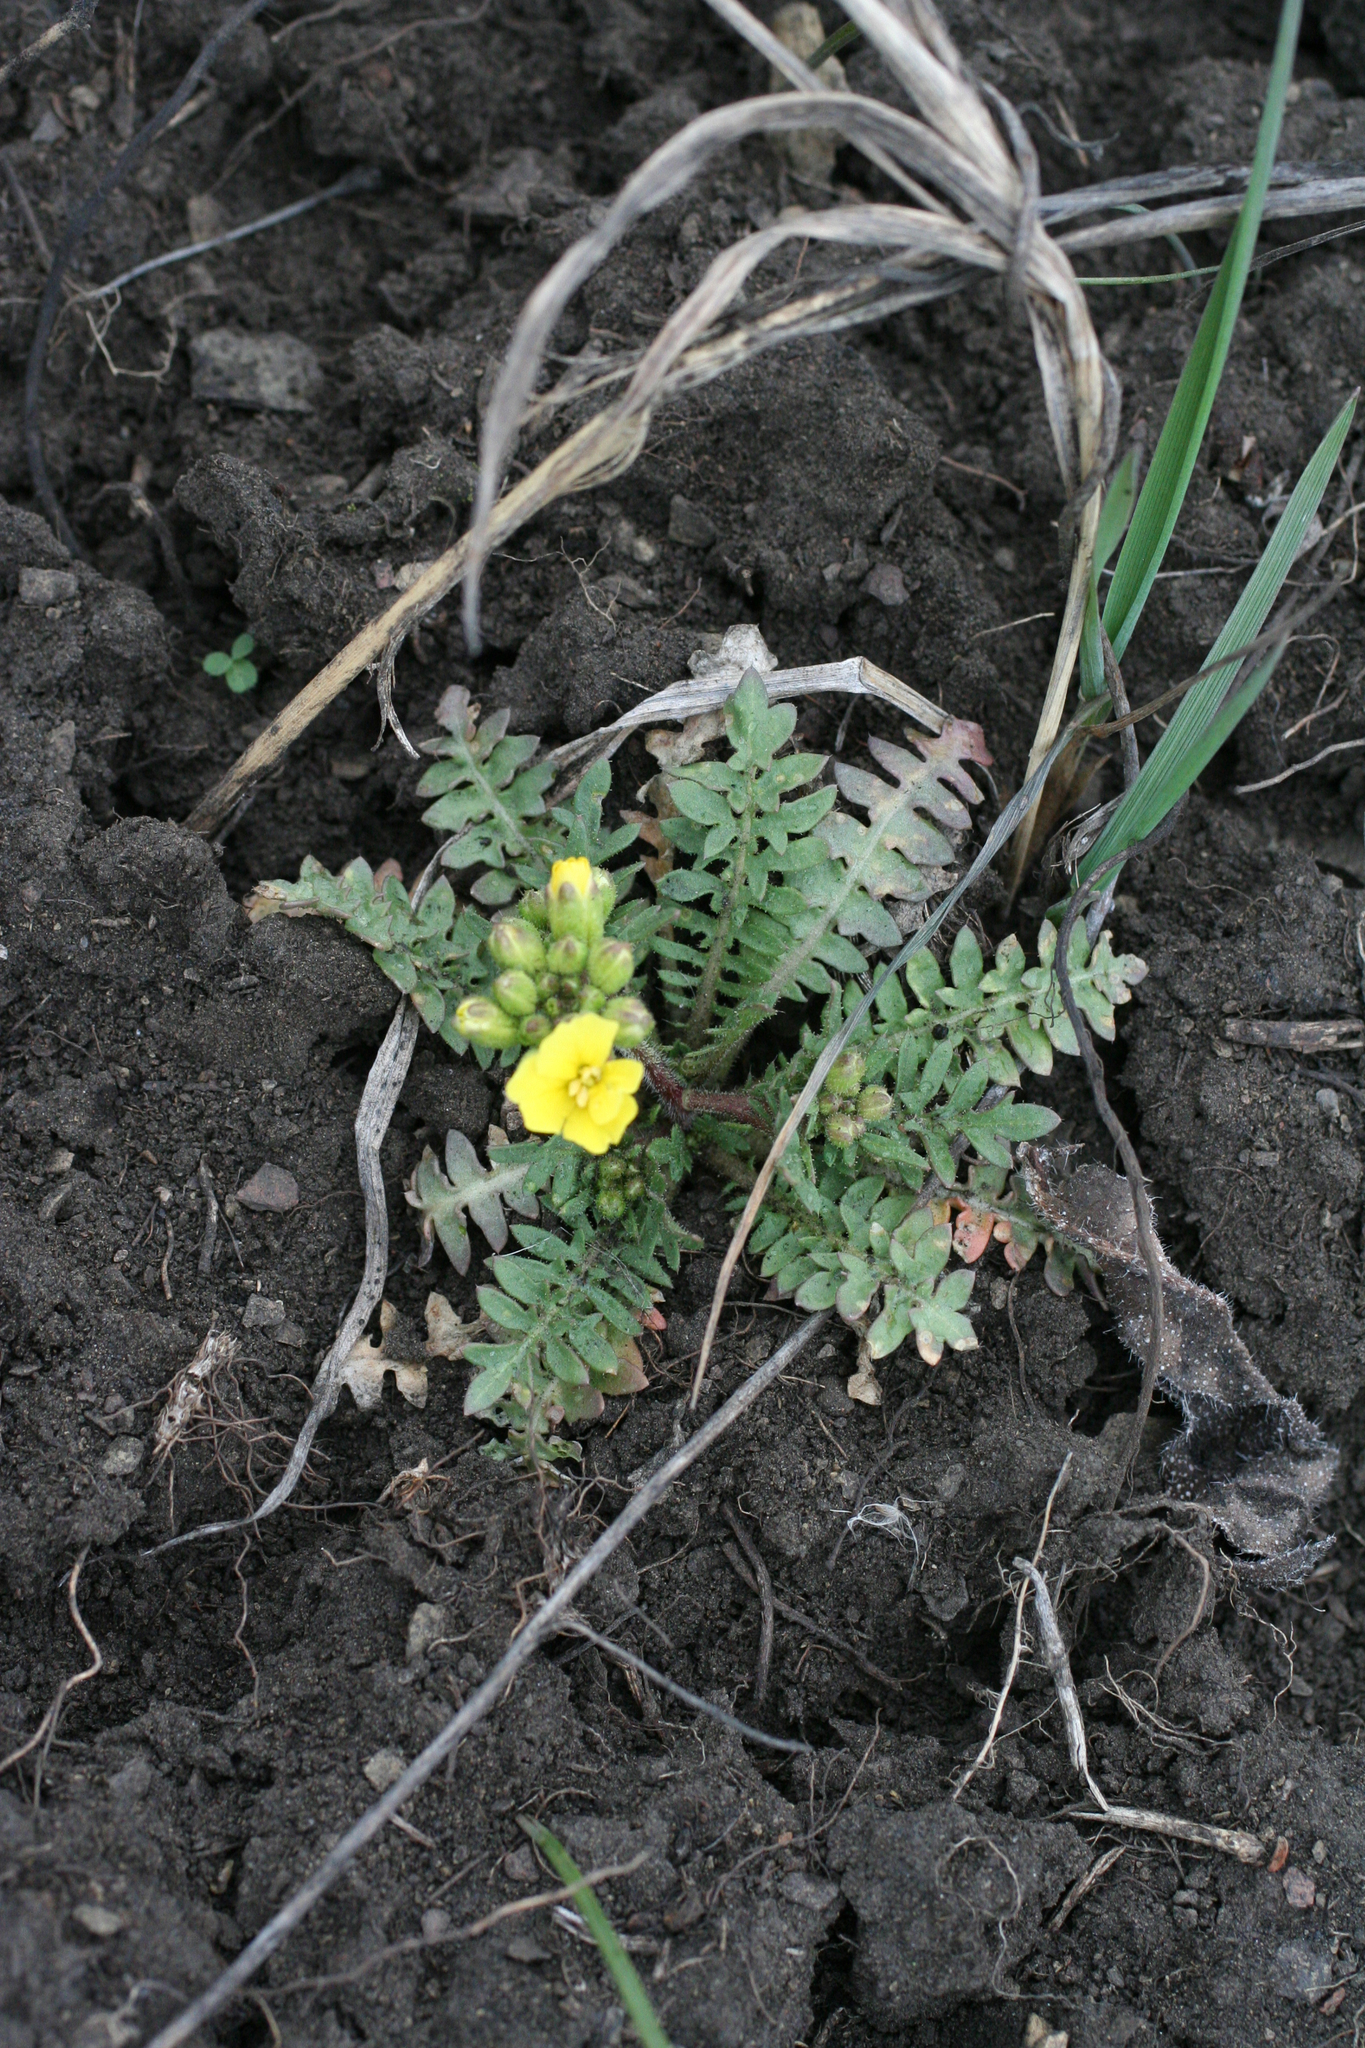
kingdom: Plantae
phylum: Tracheophyta
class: Magnoliopsida
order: Brassicales
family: Brassicaceae
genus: Chorispora
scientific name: Chorispora sibirica
